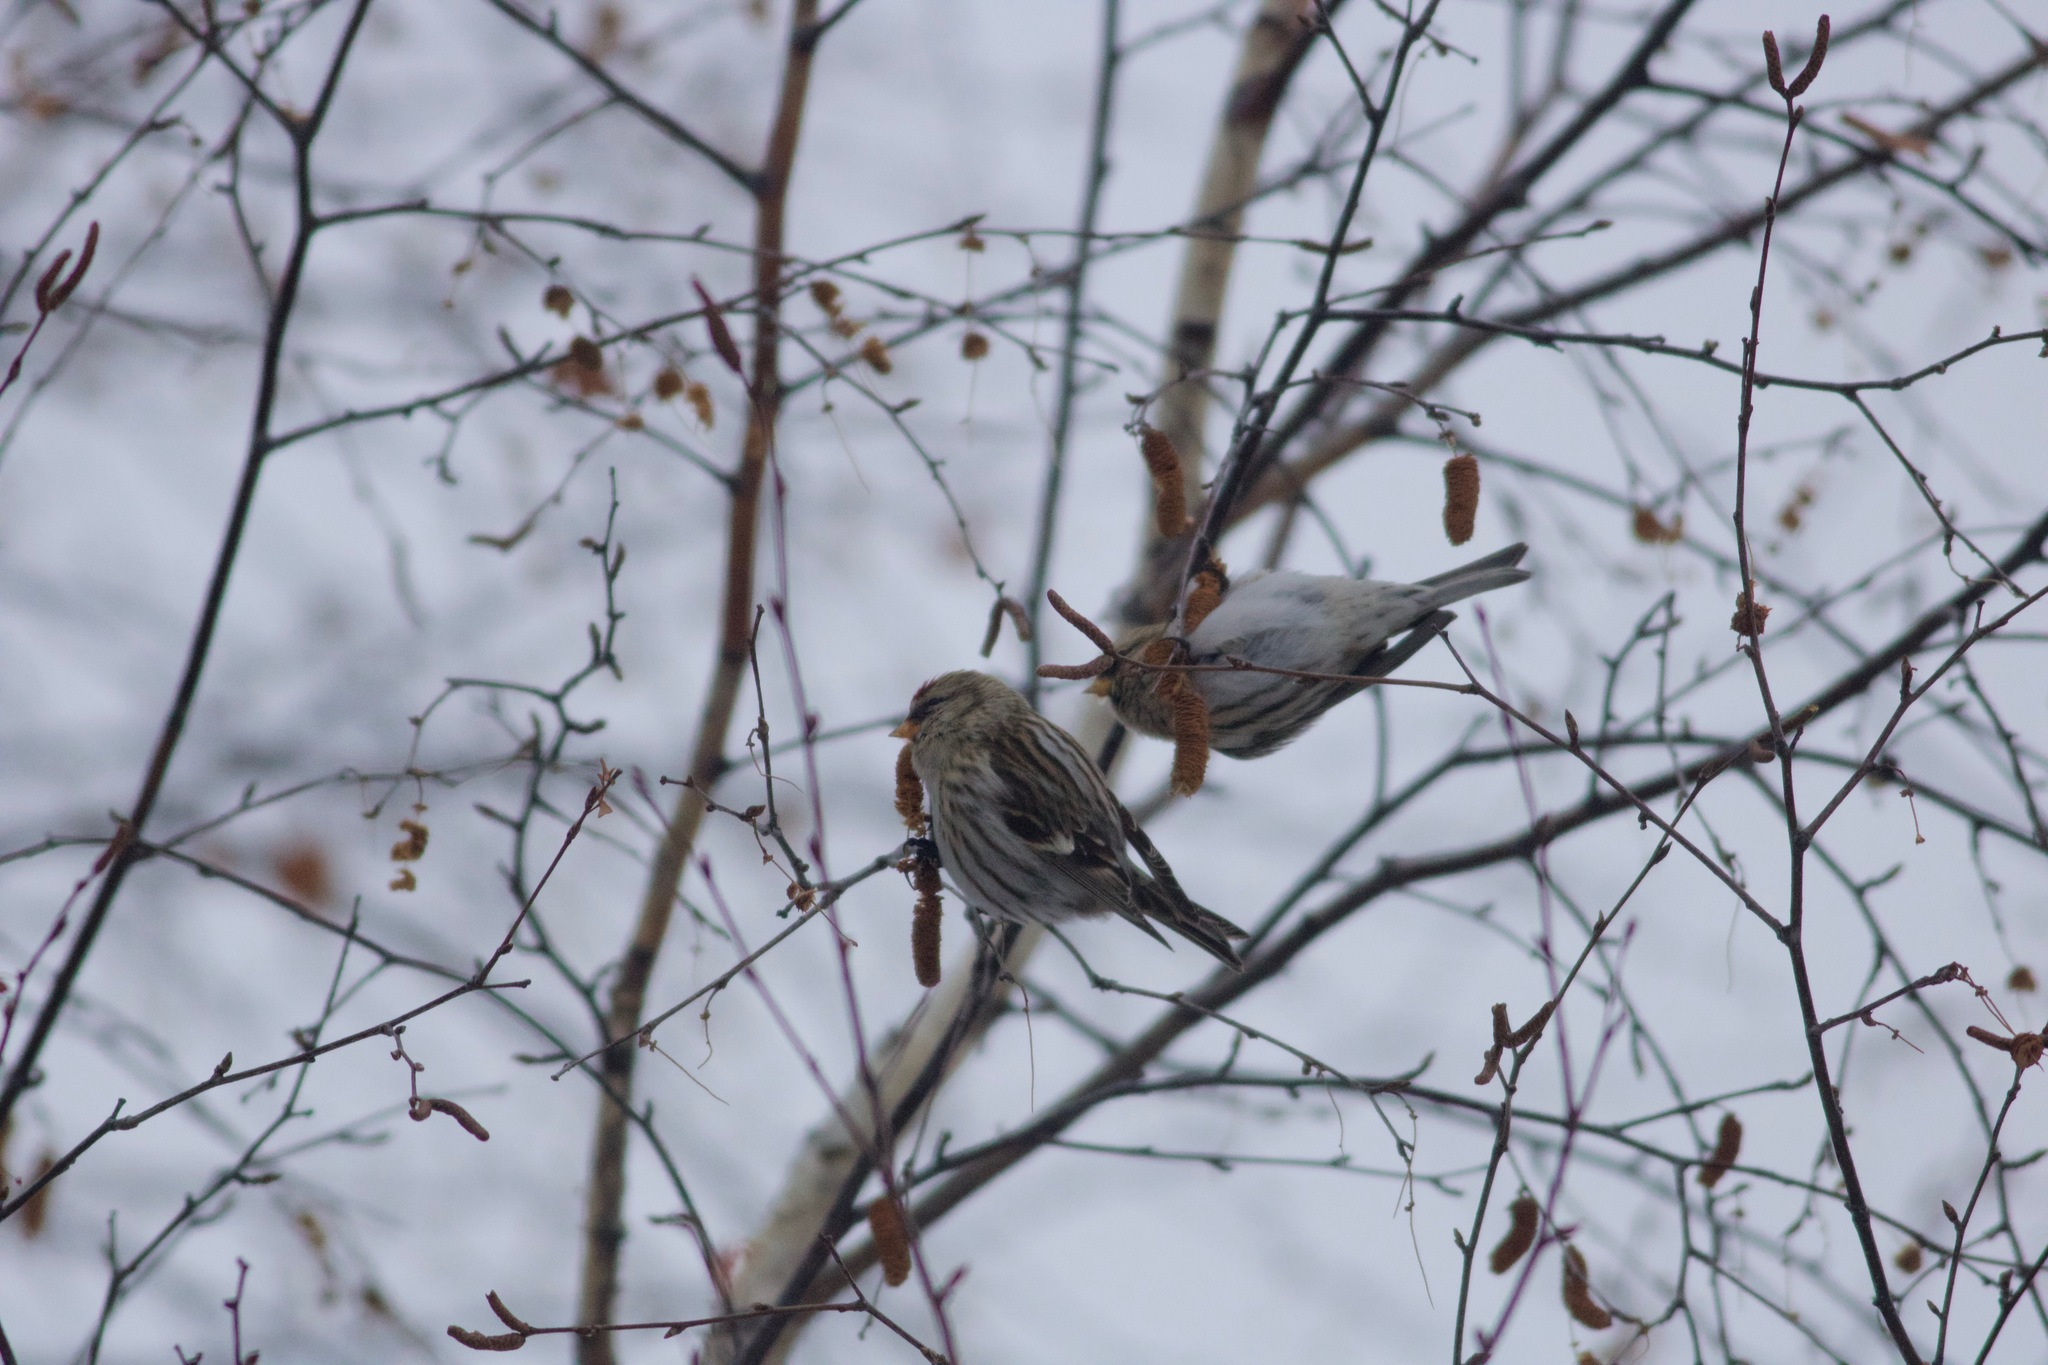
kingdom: Animalia
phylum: Chordata
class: Aves
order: Passeriformes
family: Fringillidae
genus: Acanthis
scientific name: Acanthis flammea
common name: Common redpoll
